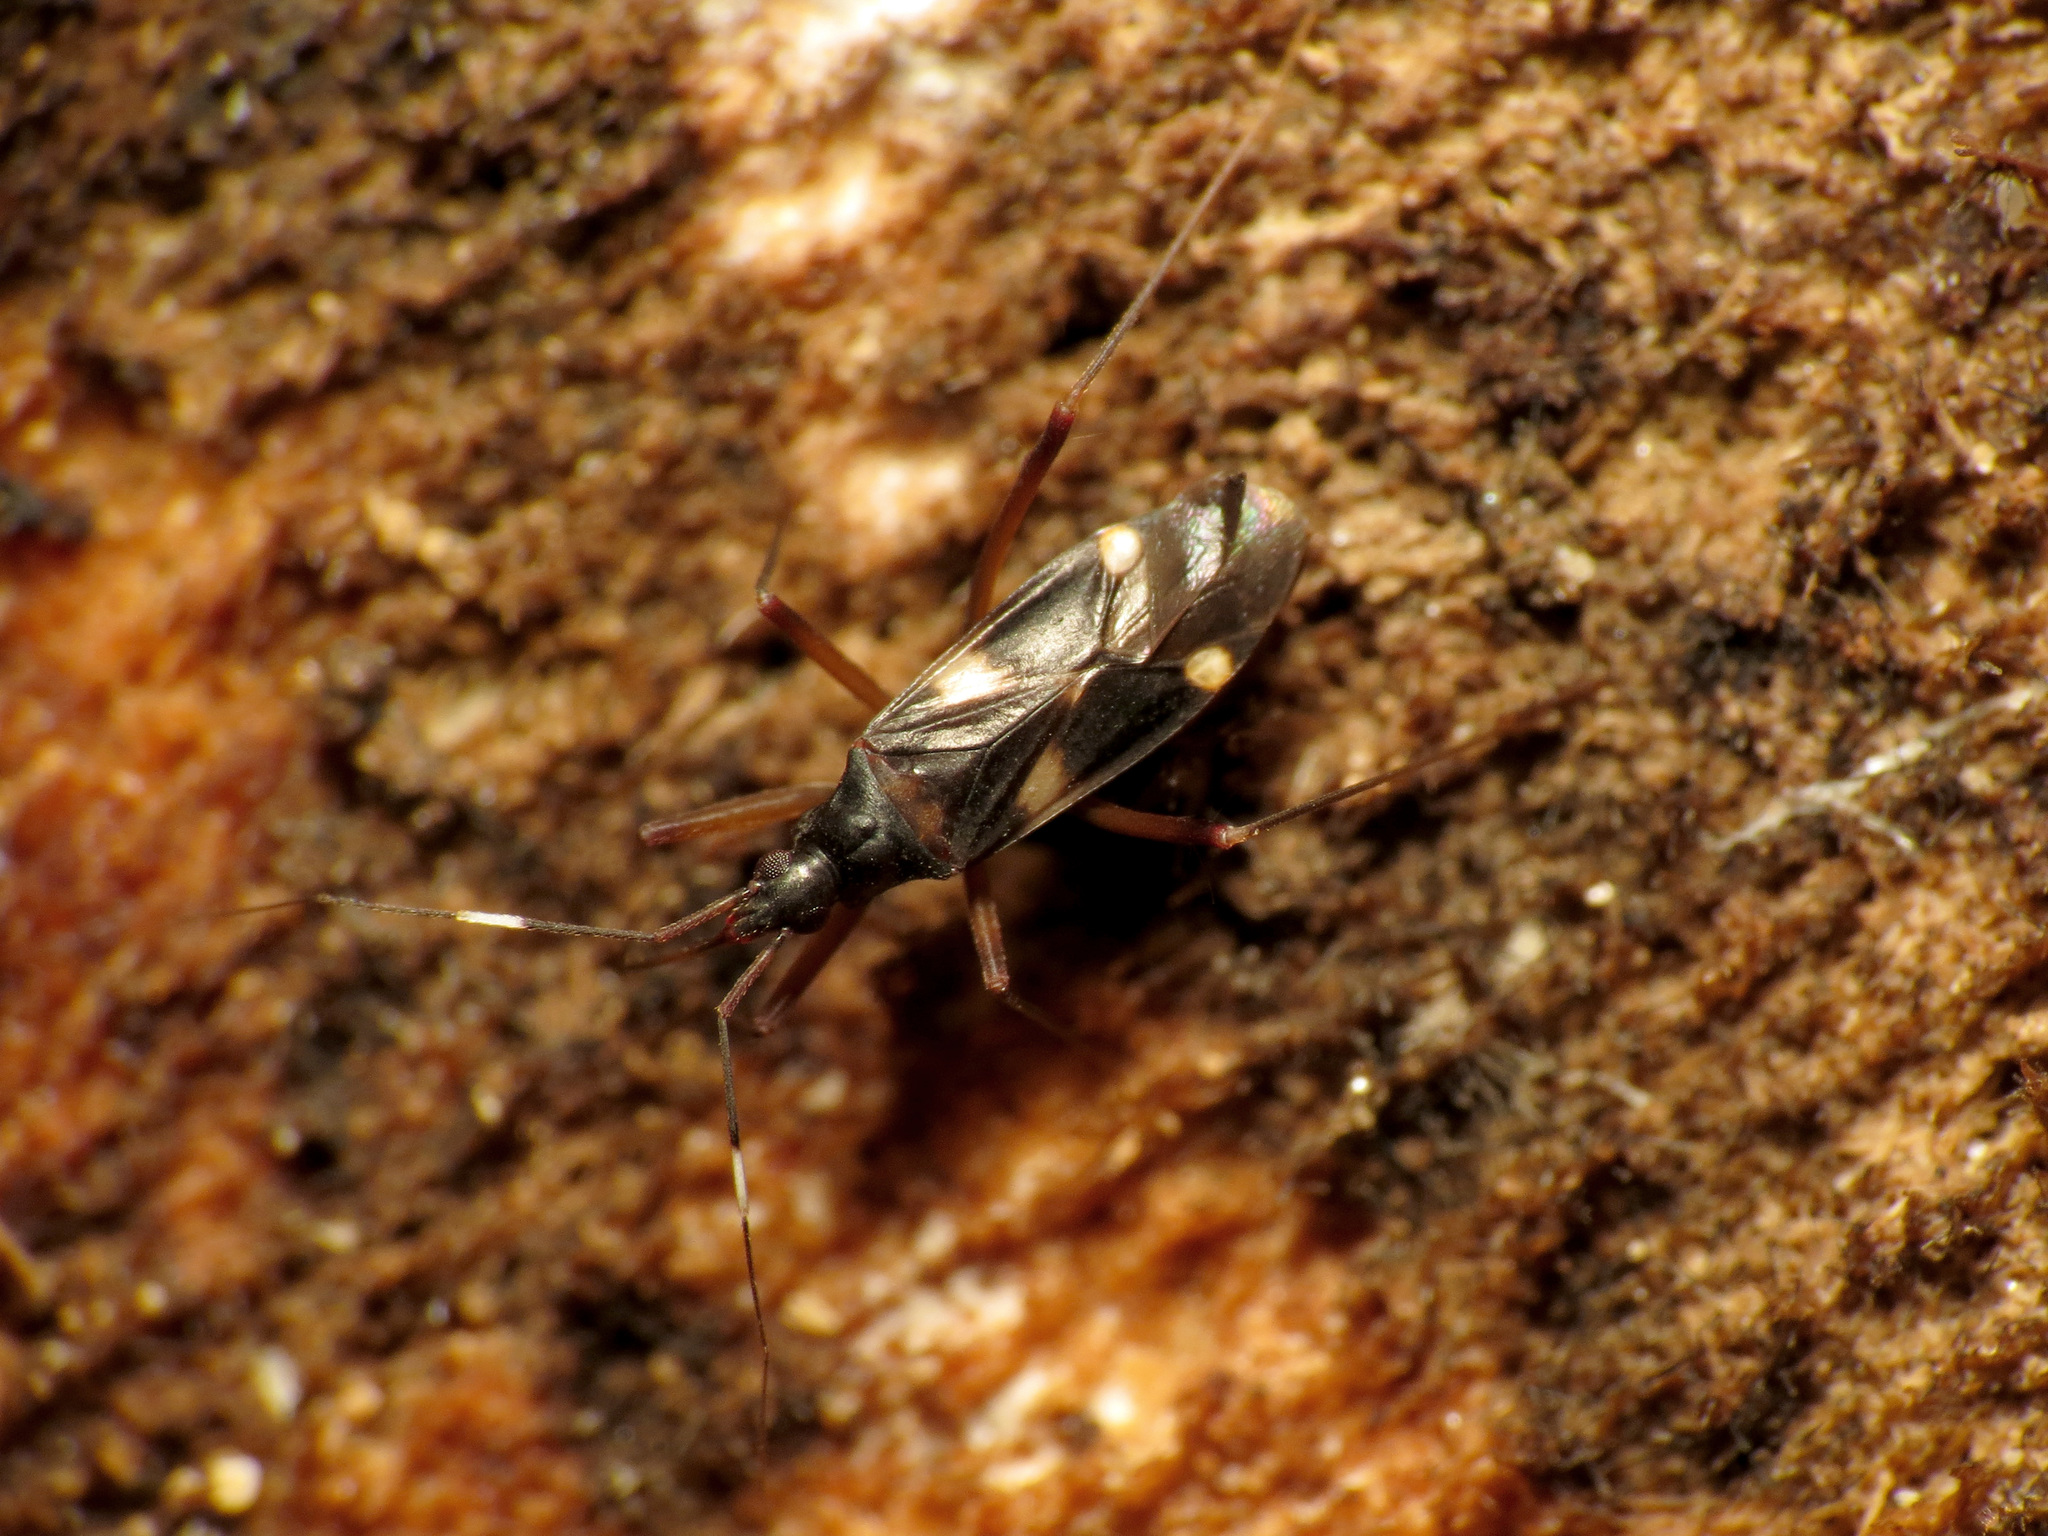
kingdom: Animalia
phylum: Arthropoda
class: Insecta
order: Hemiptera
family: Miridae
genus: Fulvius
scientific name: Fulvius imbecilis
